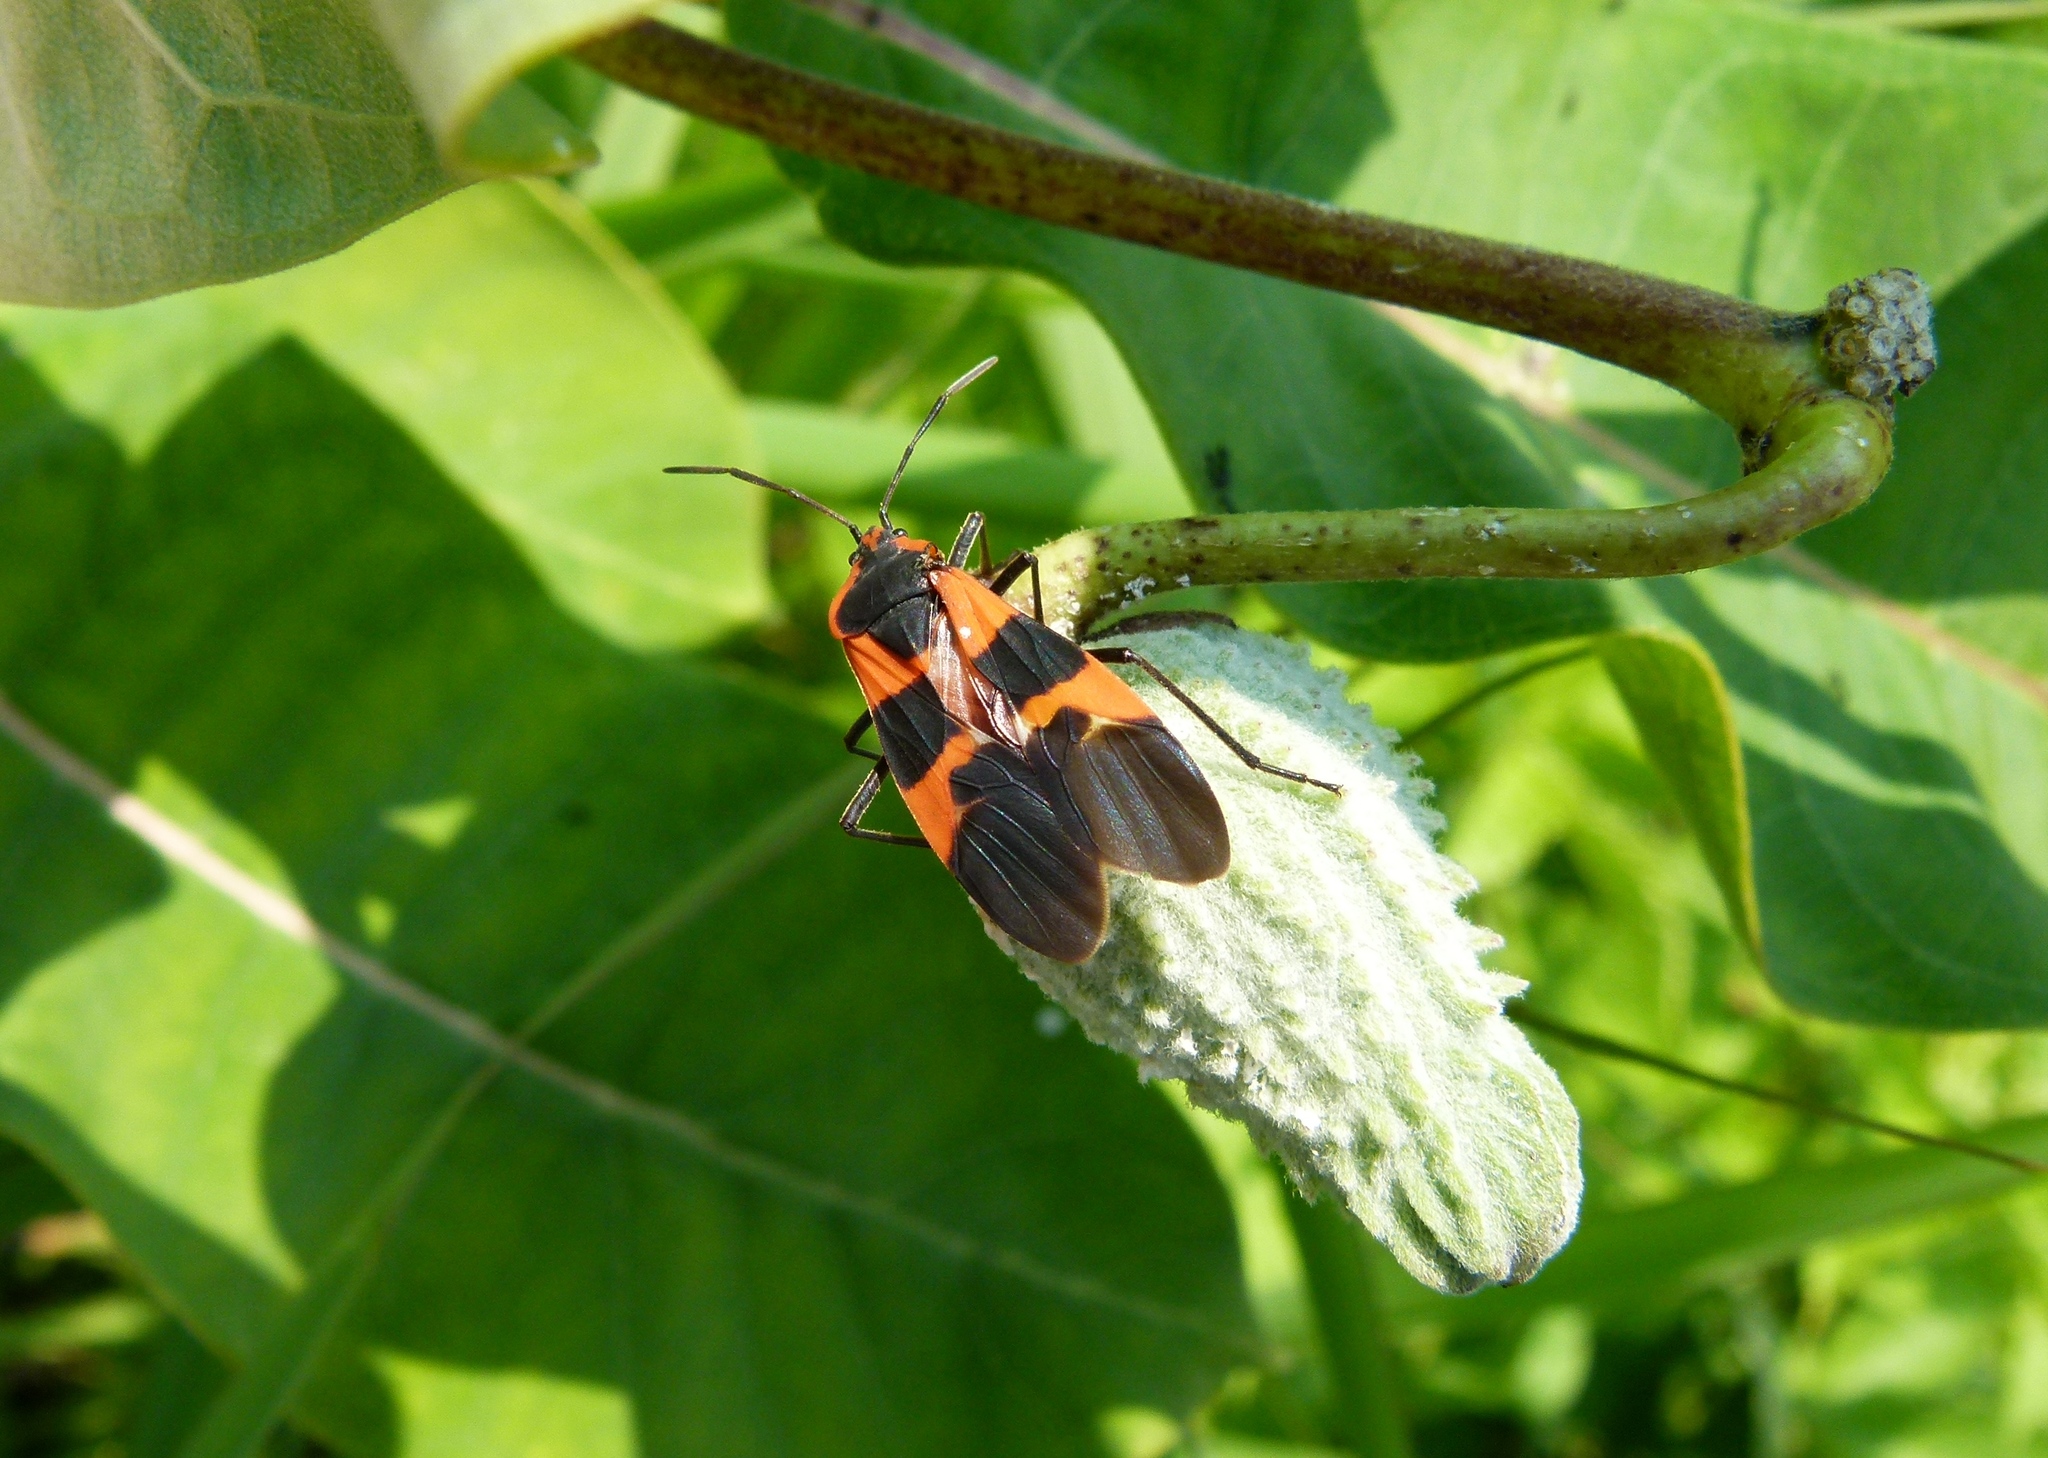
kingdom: Animalia
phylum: Arthropoda
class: Insecta
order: Hemiptera
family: Lygaeidae
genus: Oncopeltus
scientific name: Oncopeltus fasciatus
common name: Large milkweed bug
